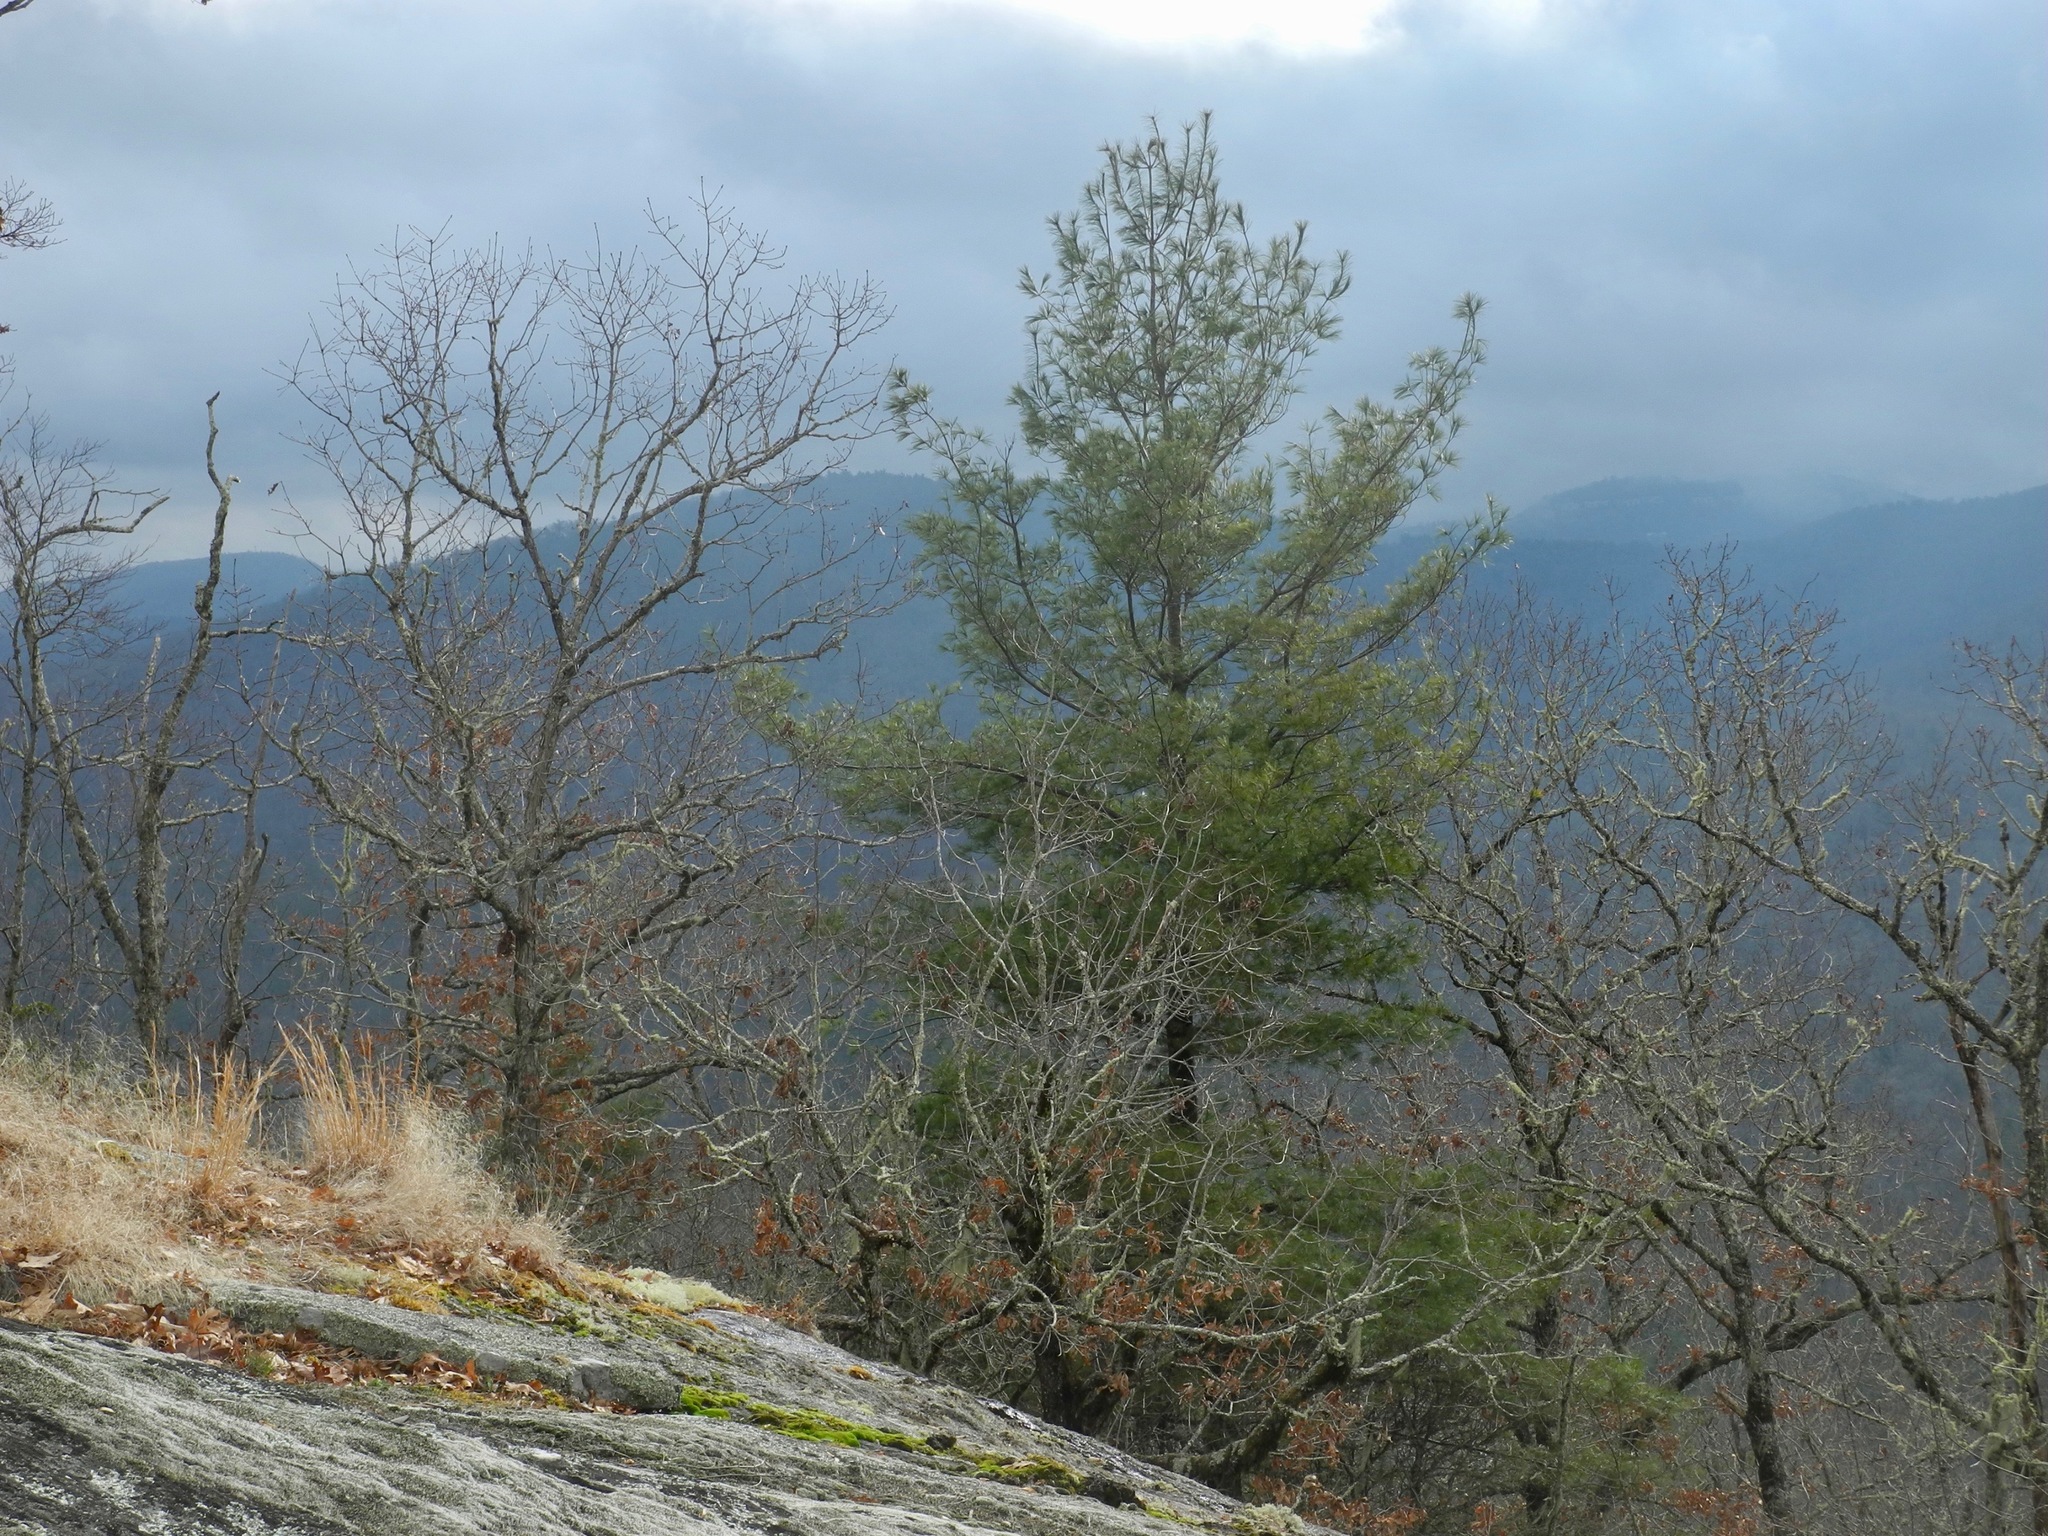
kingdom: Plantae
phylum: Tracheophyta
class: Pinopsida
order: Pinales
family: Pinaceae
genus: Pinus
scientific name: Pinus strobus
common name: Weymouth pine
